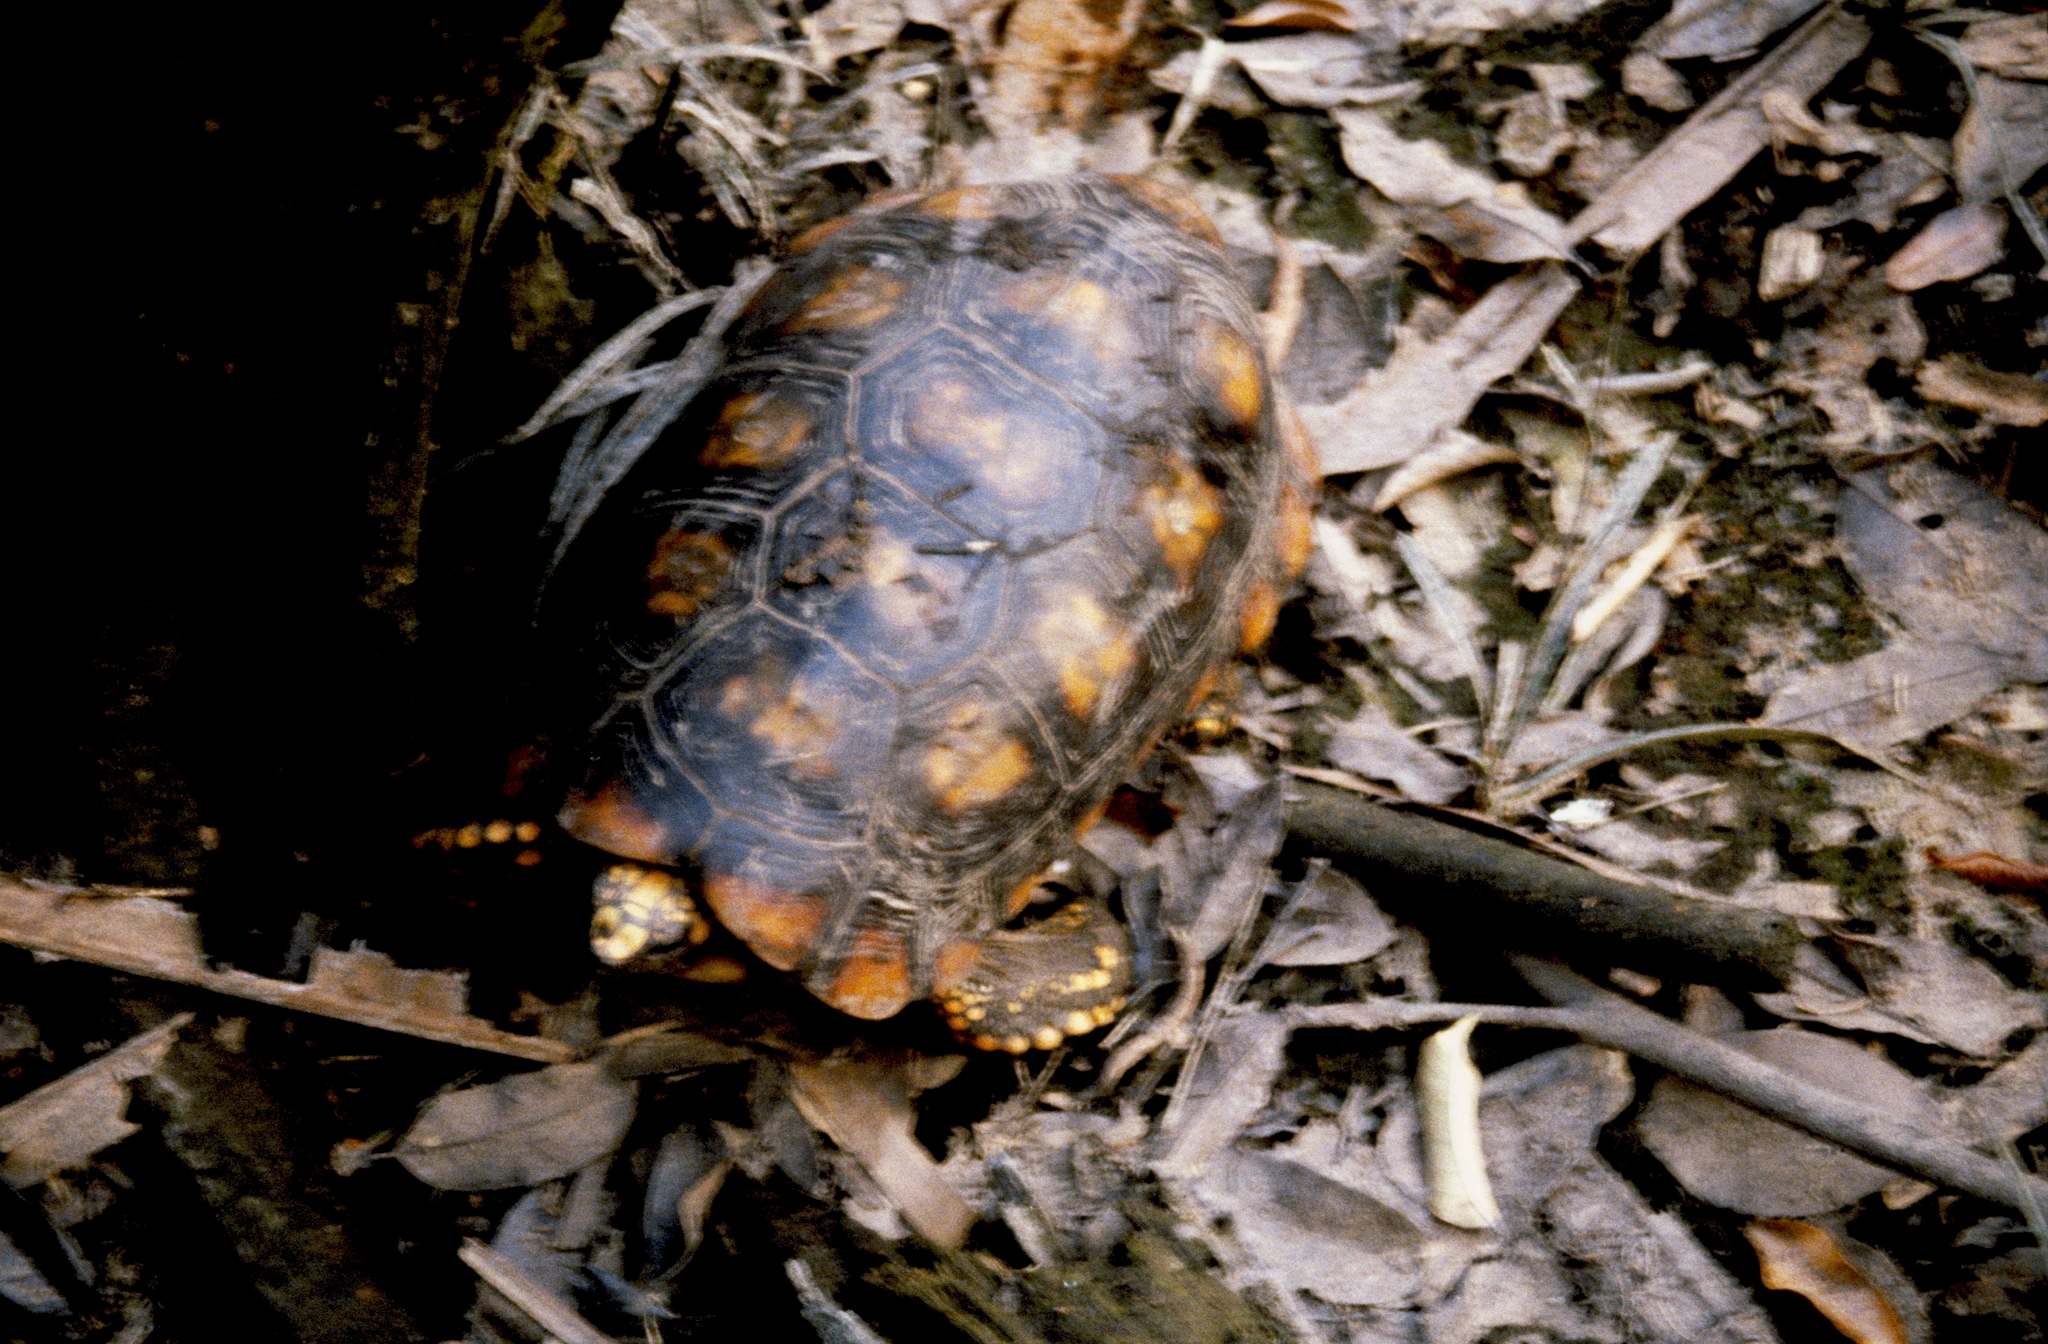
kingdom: Animalia
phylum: Chordata
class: Testudines
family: Testudinidae
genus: Chelonoidis
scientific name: Chelonoidis denticulatus
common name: Yellow-footed tortoise
